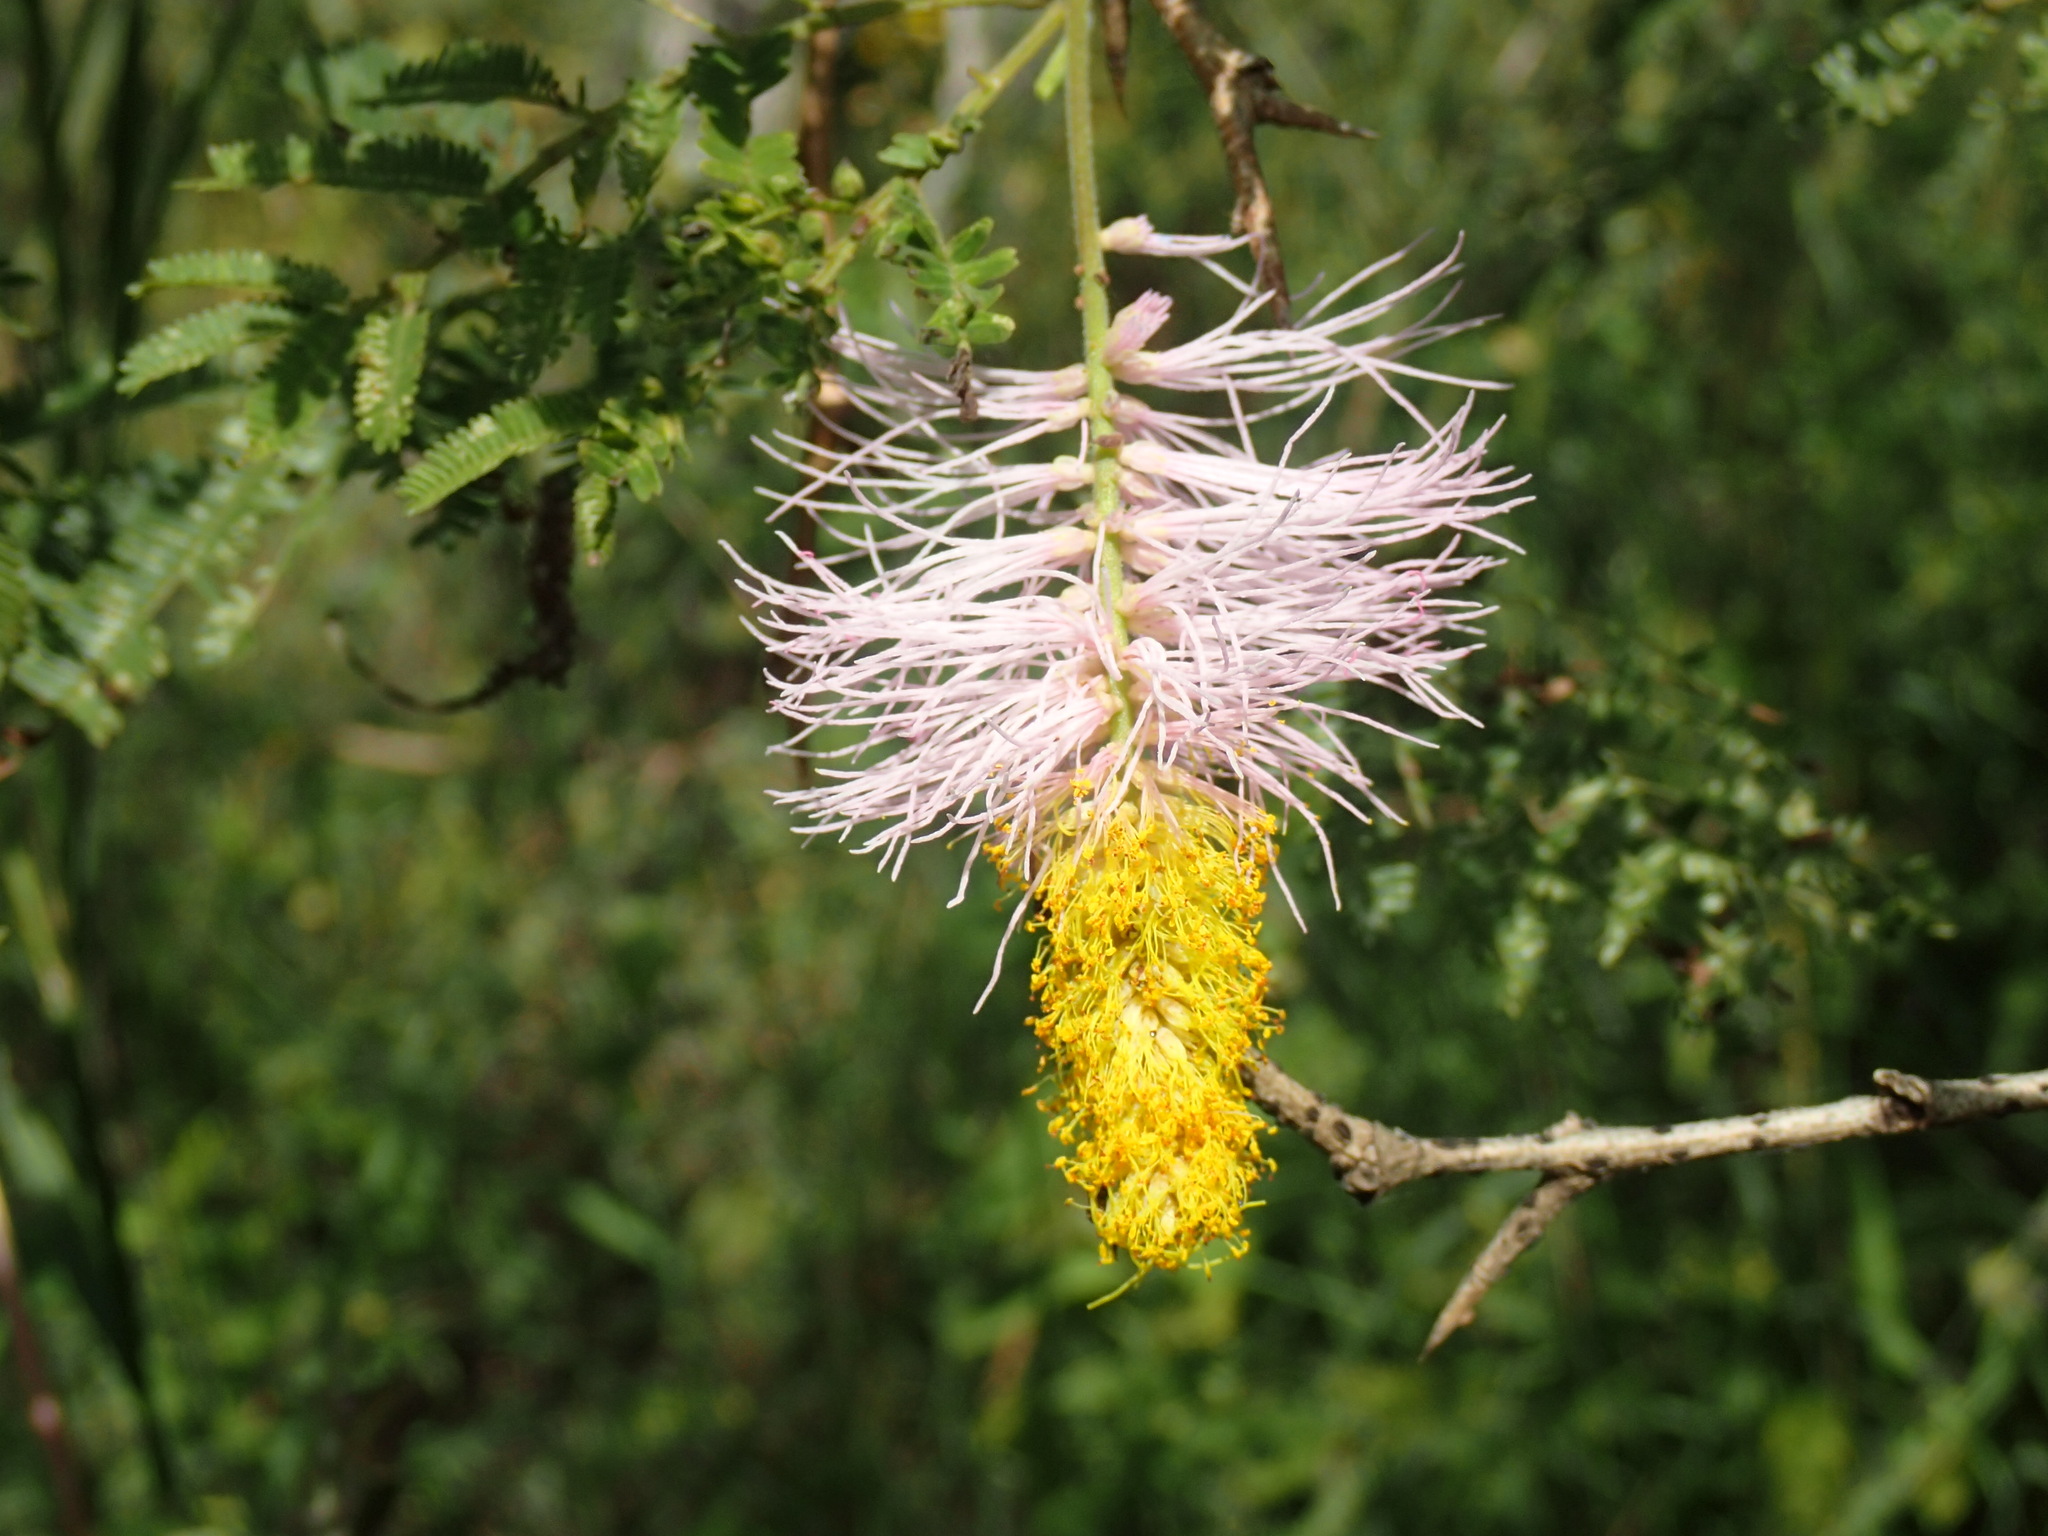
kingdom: Plantae
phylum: Tracheophyta
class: Magnoliopsida
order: Fabales
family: Fabaceae
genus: Dichrostachys
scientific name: Dichrostachys cinerea
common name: Sicklebush
